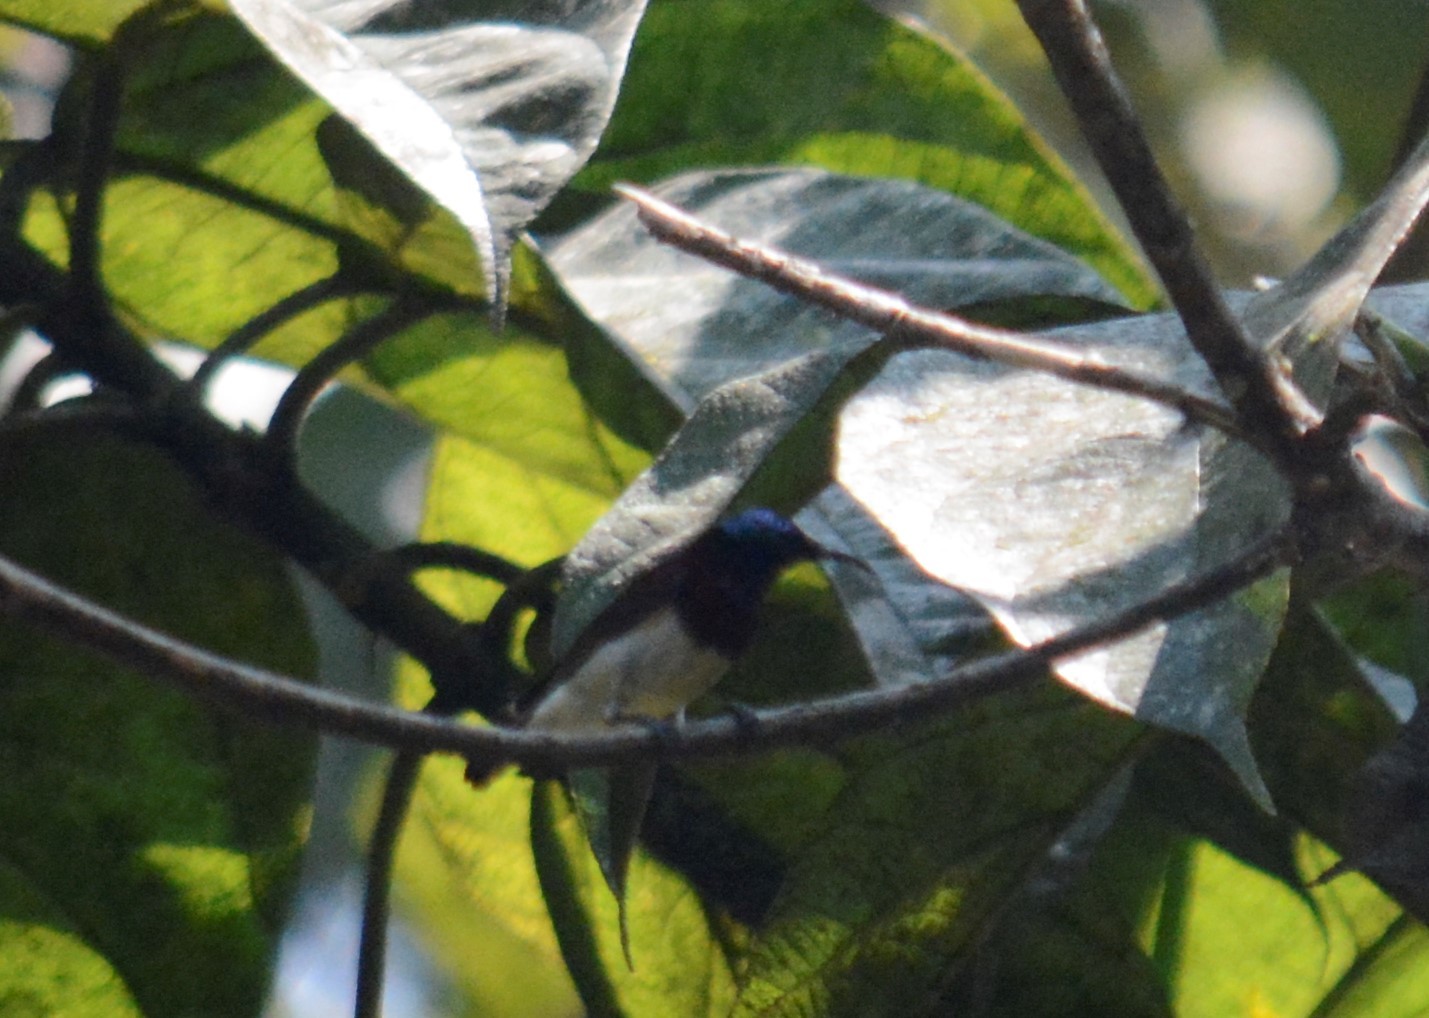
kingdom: Animalia
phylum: Chordata
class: Aves
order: Passeriformes
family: Nectariniidae
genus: Leptocoma
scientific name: Leptocoma minima
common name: Crimson-backed sunbird
